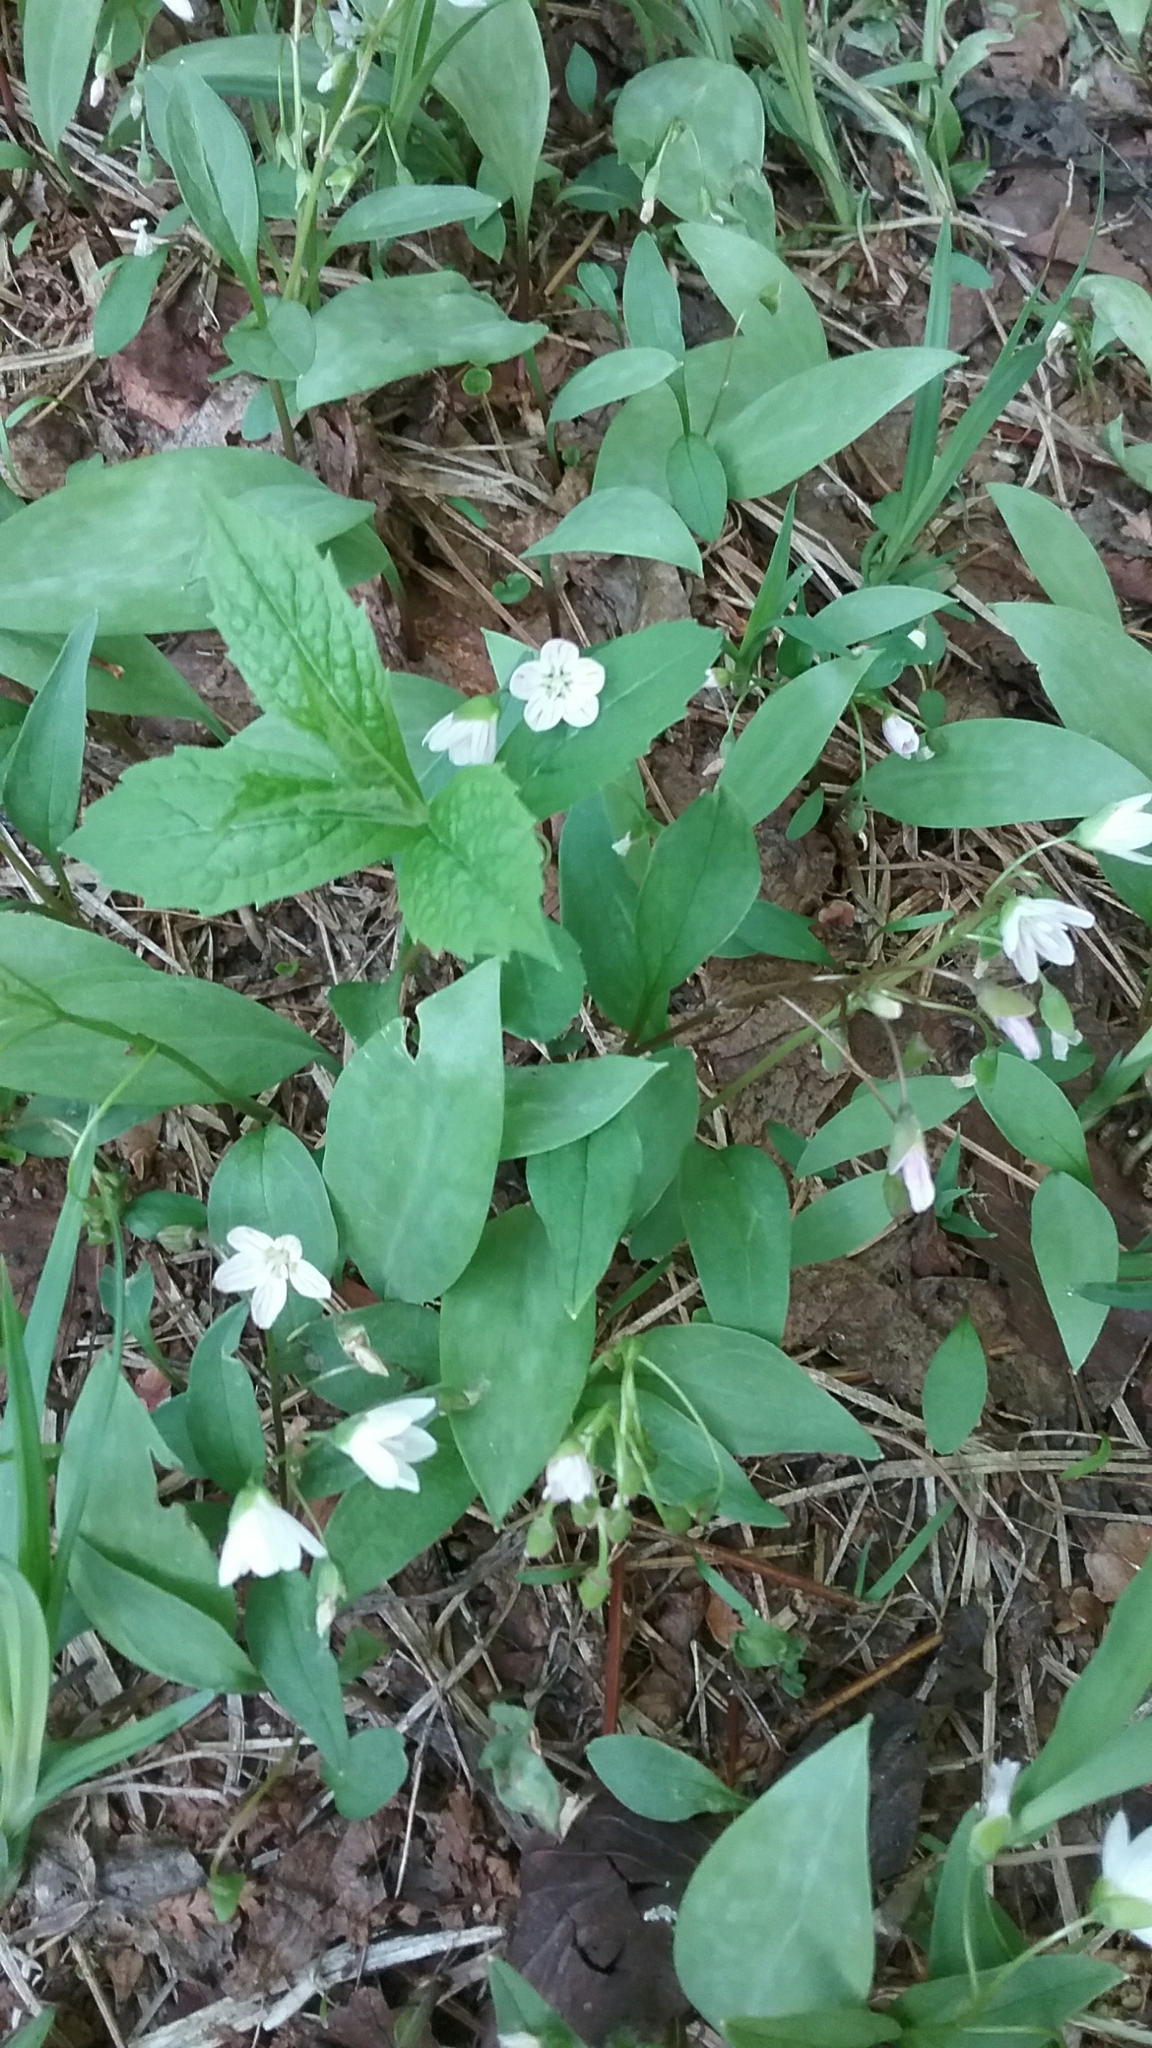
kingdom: Plantae
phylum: Tracheophyta
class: Magnoliopsida
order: Caryophyllales
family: Montiaceae
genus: Claytonia
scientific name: Claytonia caroliniana
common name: Carolina spring beauty
